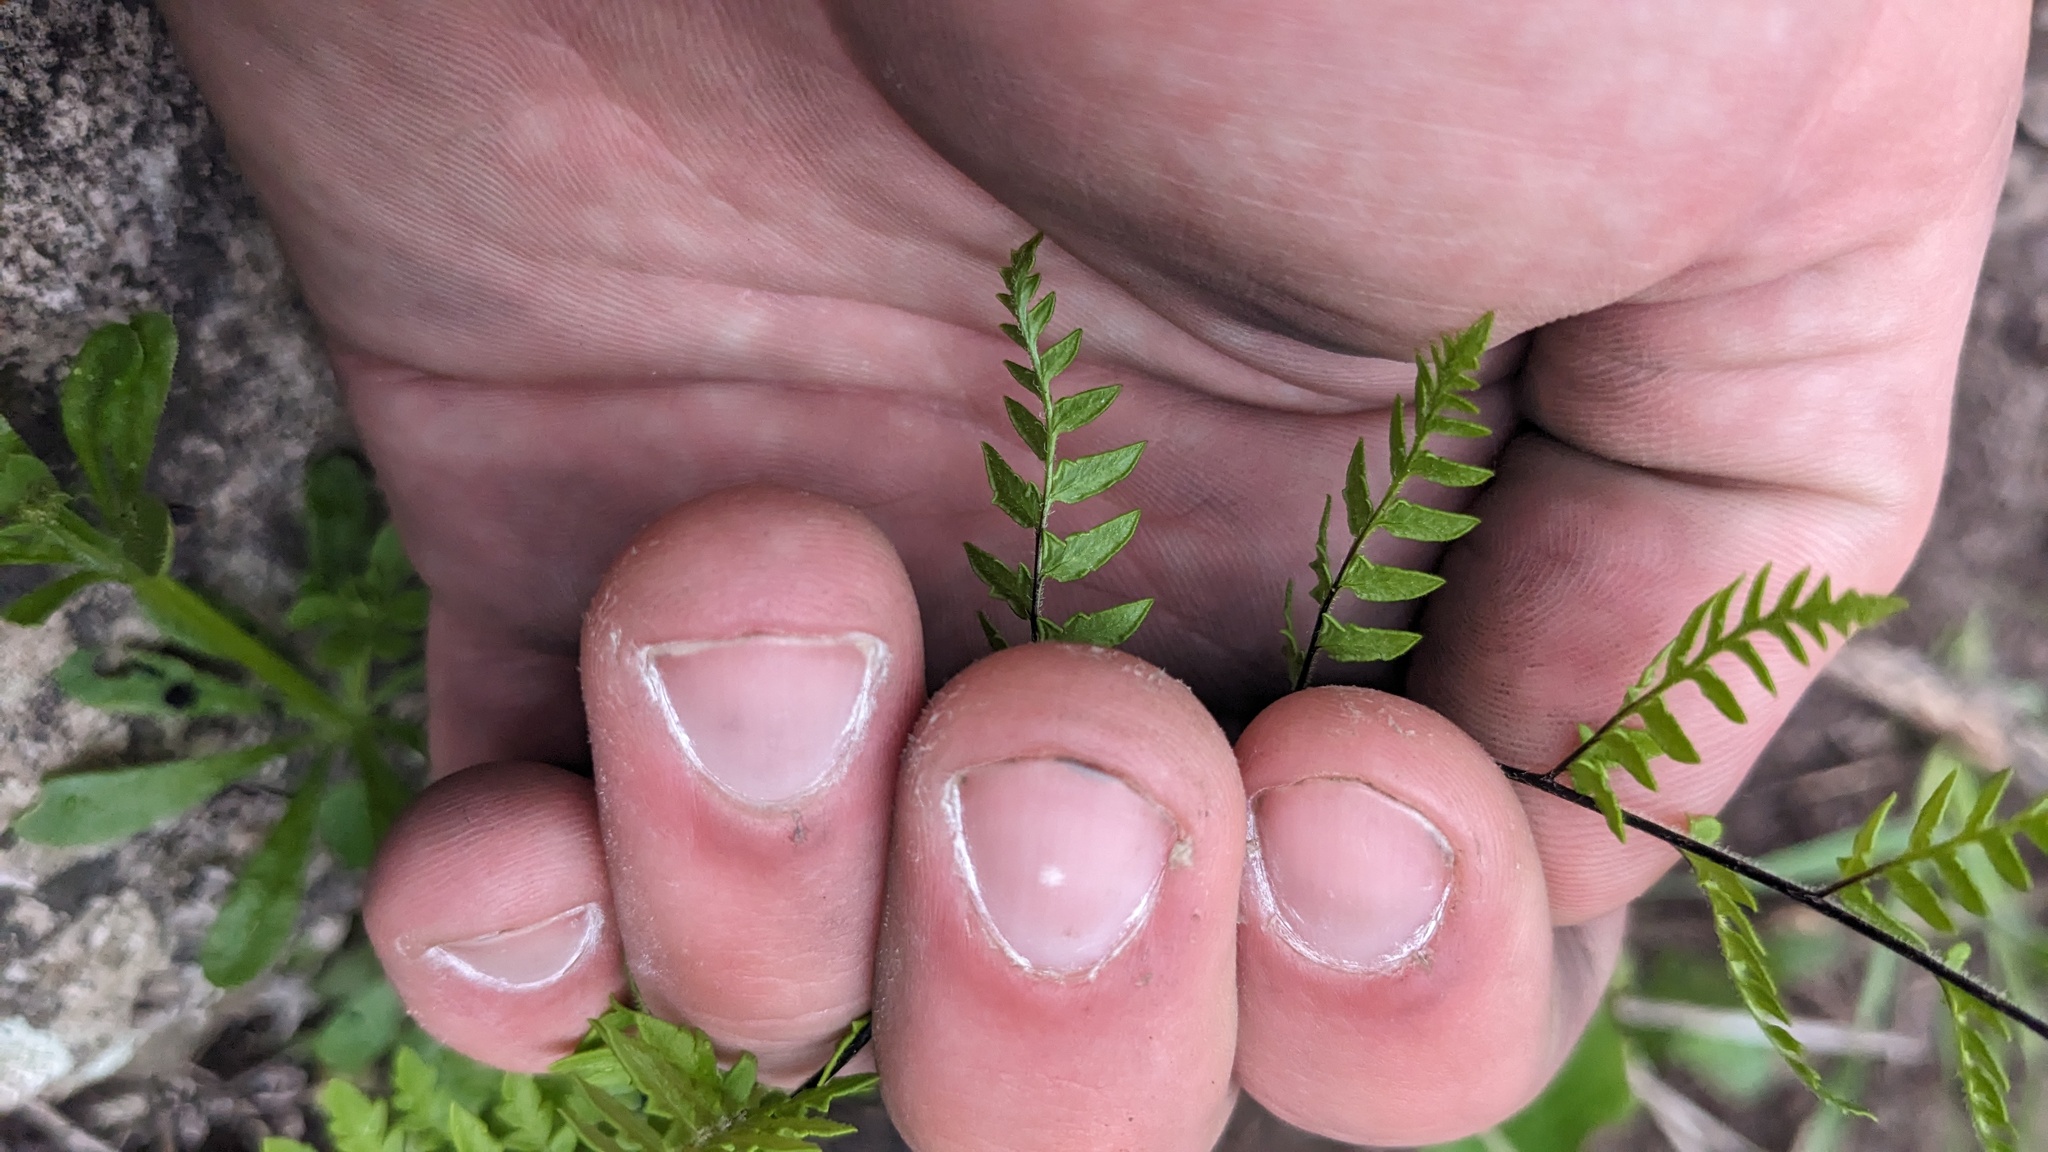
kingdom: Plantae
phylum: Tracheophyta
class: Polypodiopsida
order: Polypodiales
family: Pteridaceae
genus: Myriopteris
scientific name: Myriopteris alabamensis
